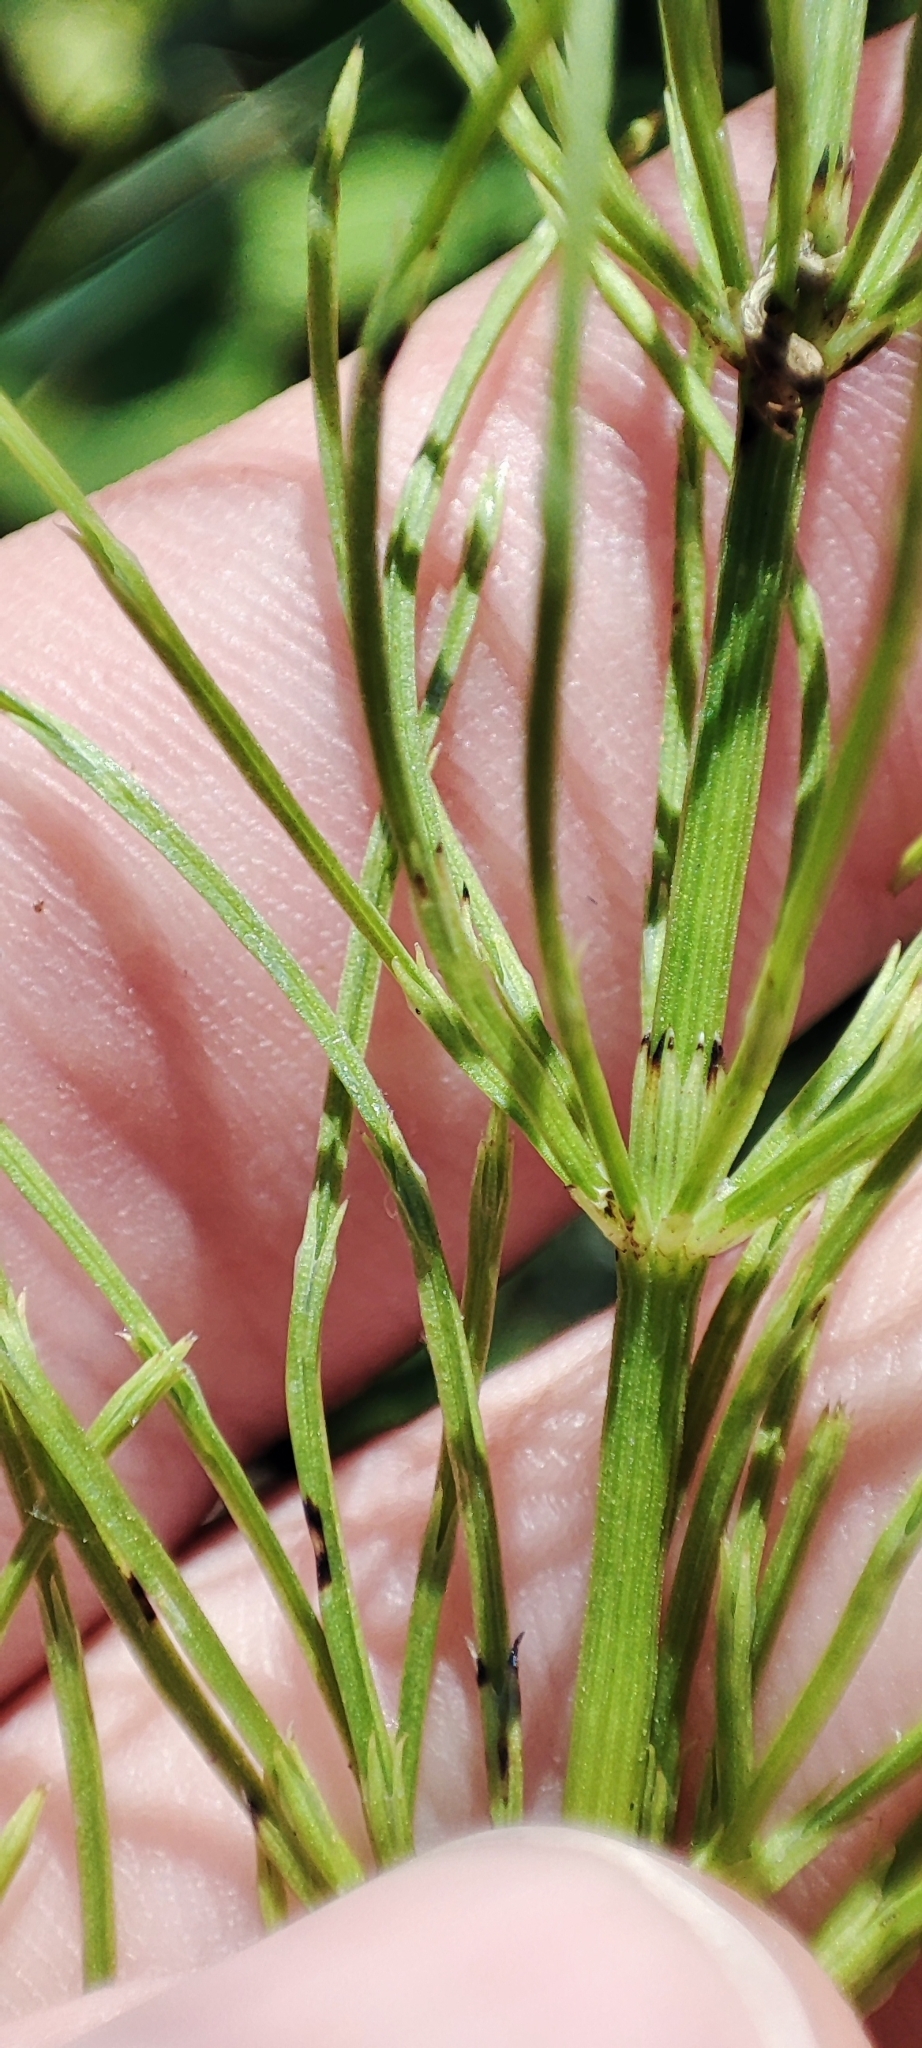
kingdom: Plantae
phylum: Tracheophyta
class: Polypodiopsida
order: Equisetales
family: Equisetaceae
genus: Equisetum
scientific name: Equisetum arvense
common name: Field horsetail
